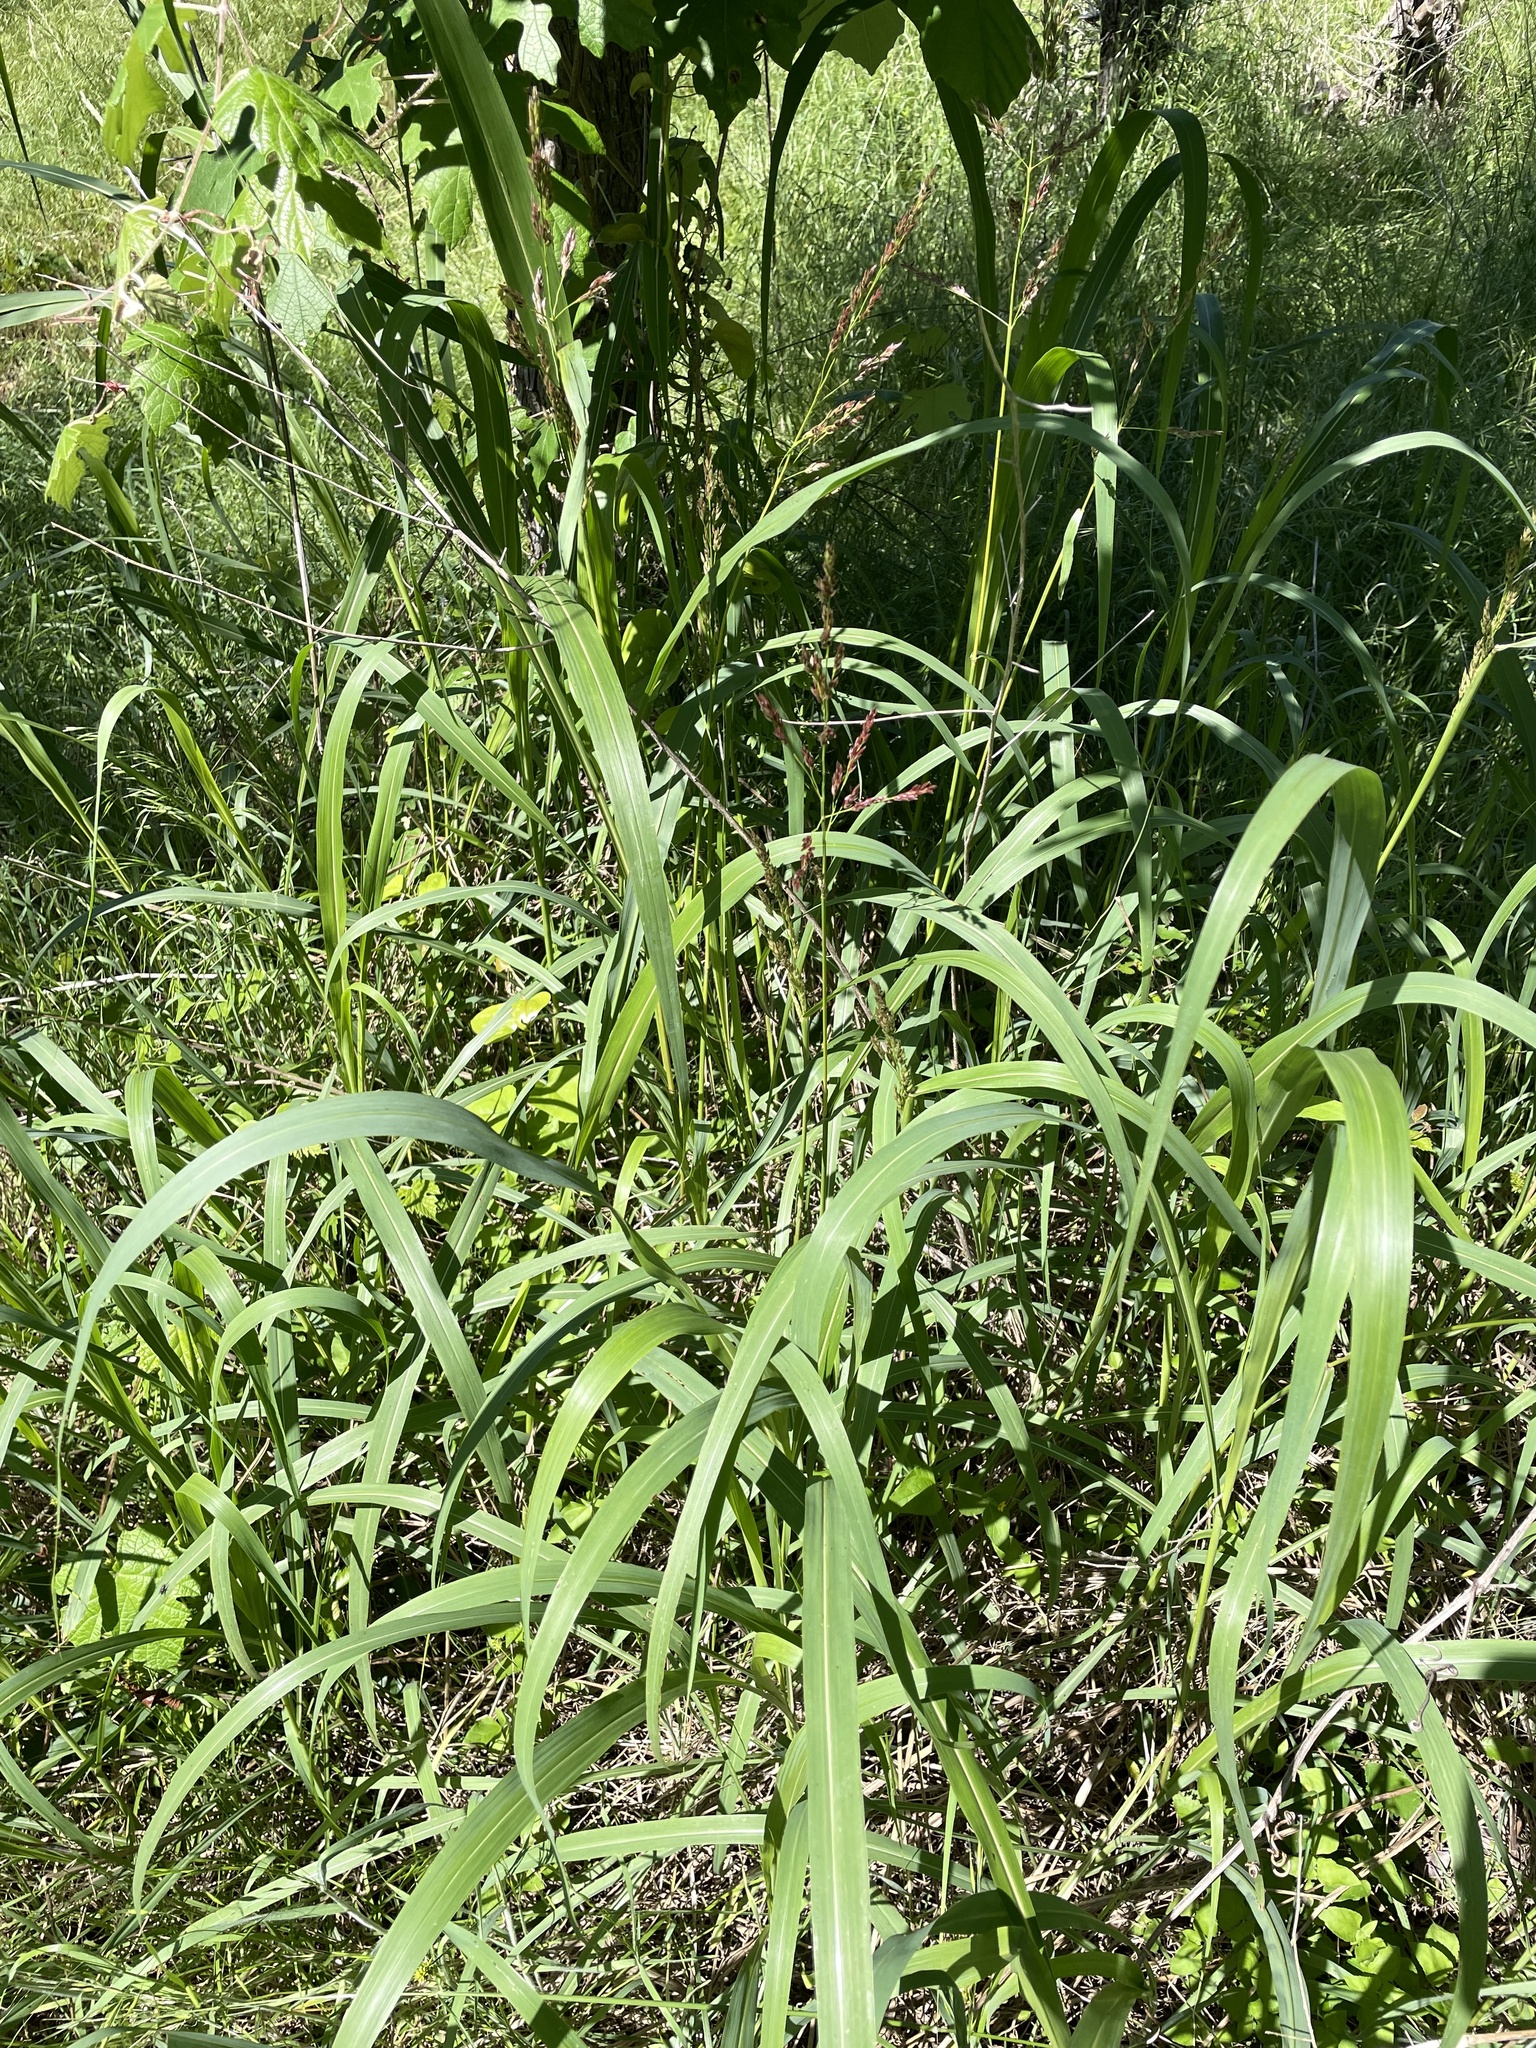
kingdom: Plantae
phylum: Tracheophyta
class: Liliopsida
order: Poales
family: Poaceae
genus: Sorghum
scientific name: Sorghum halepense
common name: Johnson-grass
